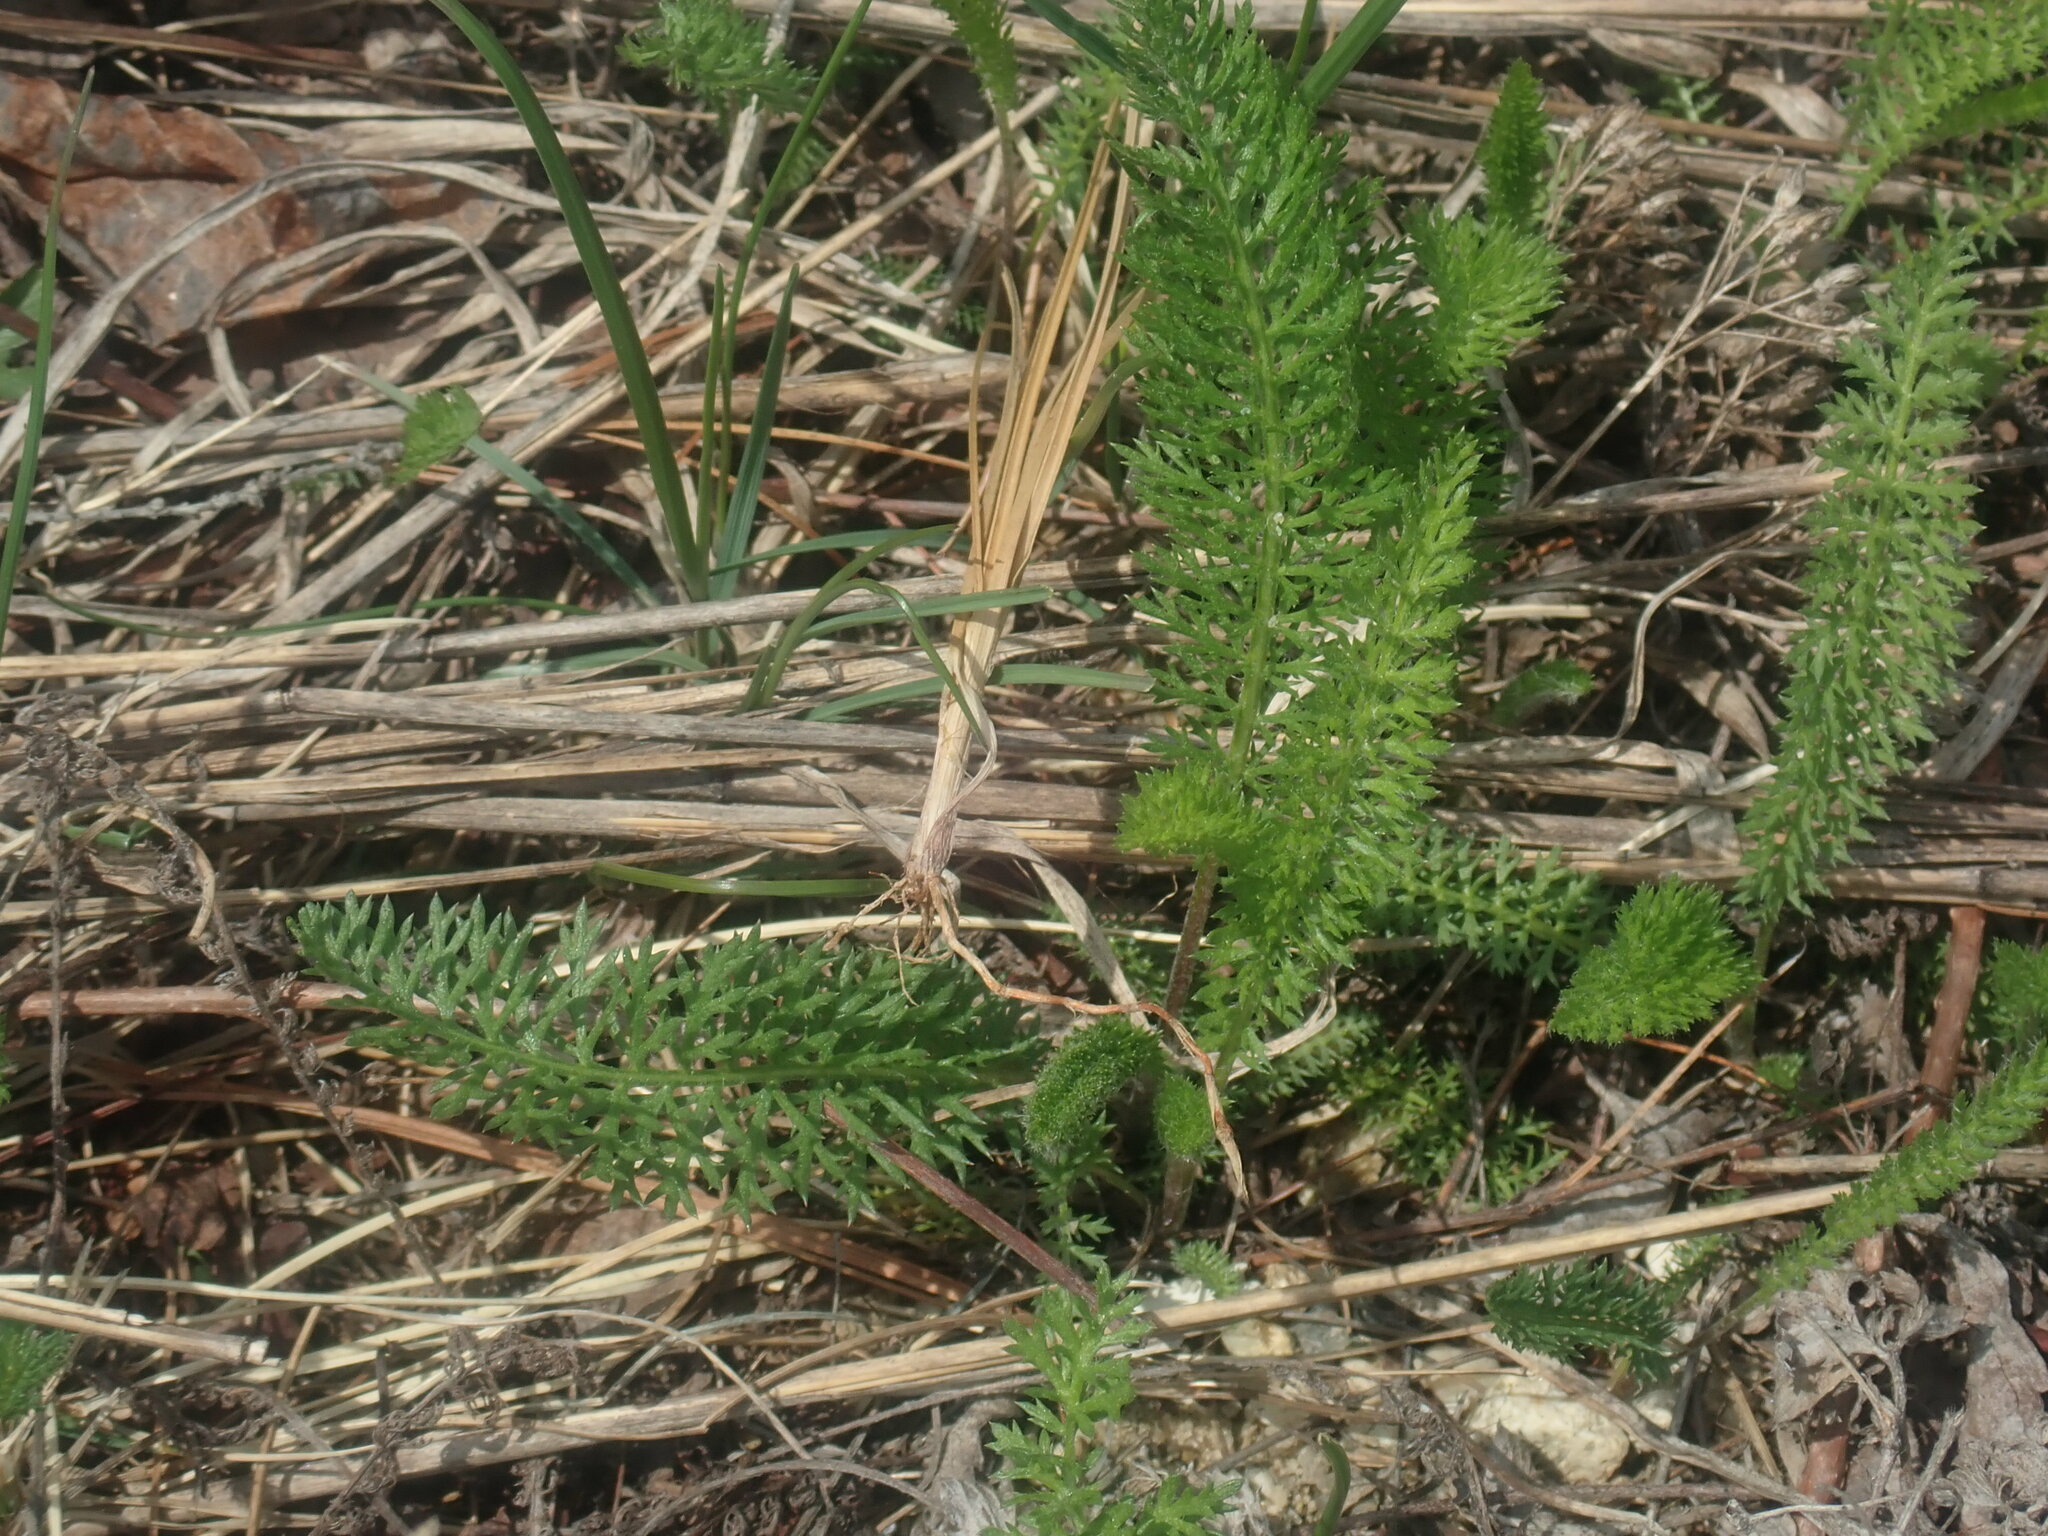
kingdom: Plantae
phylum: Tracheophyta
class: Magnoliopsida
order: Asterales
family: Asteraceae
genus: Achillea
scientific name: Achillea millefolium
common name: Yarrow
